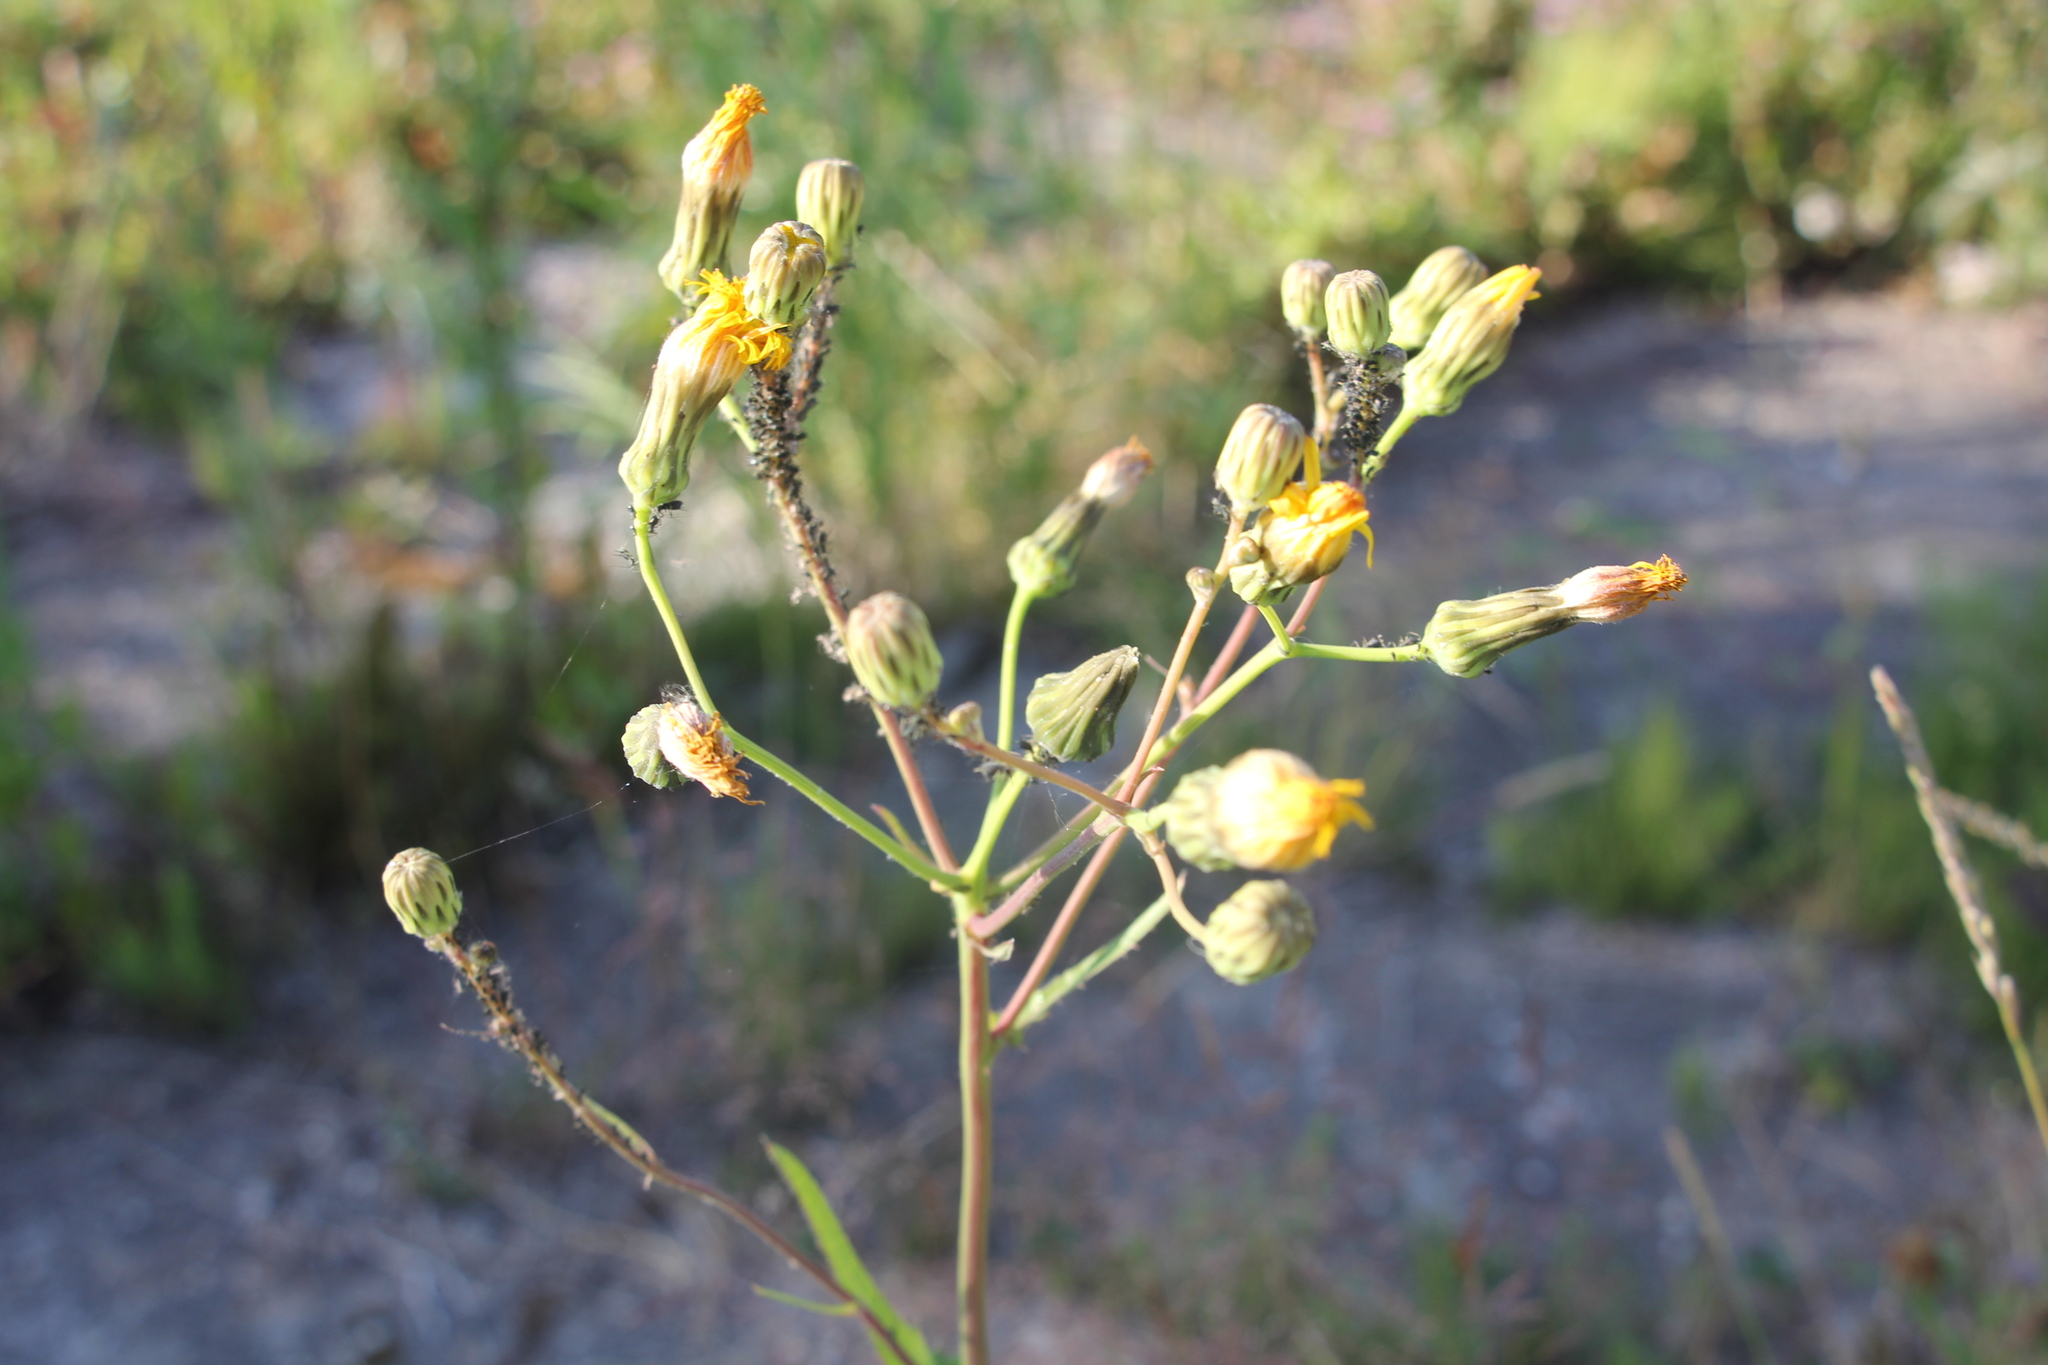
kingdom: Plantae
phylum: Tracheophyta
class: Magnoliopsida
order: Asterales
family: Asteraceae
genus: Sonchus
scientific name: Sonchus arvensis
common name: Perennial sow-thistle
